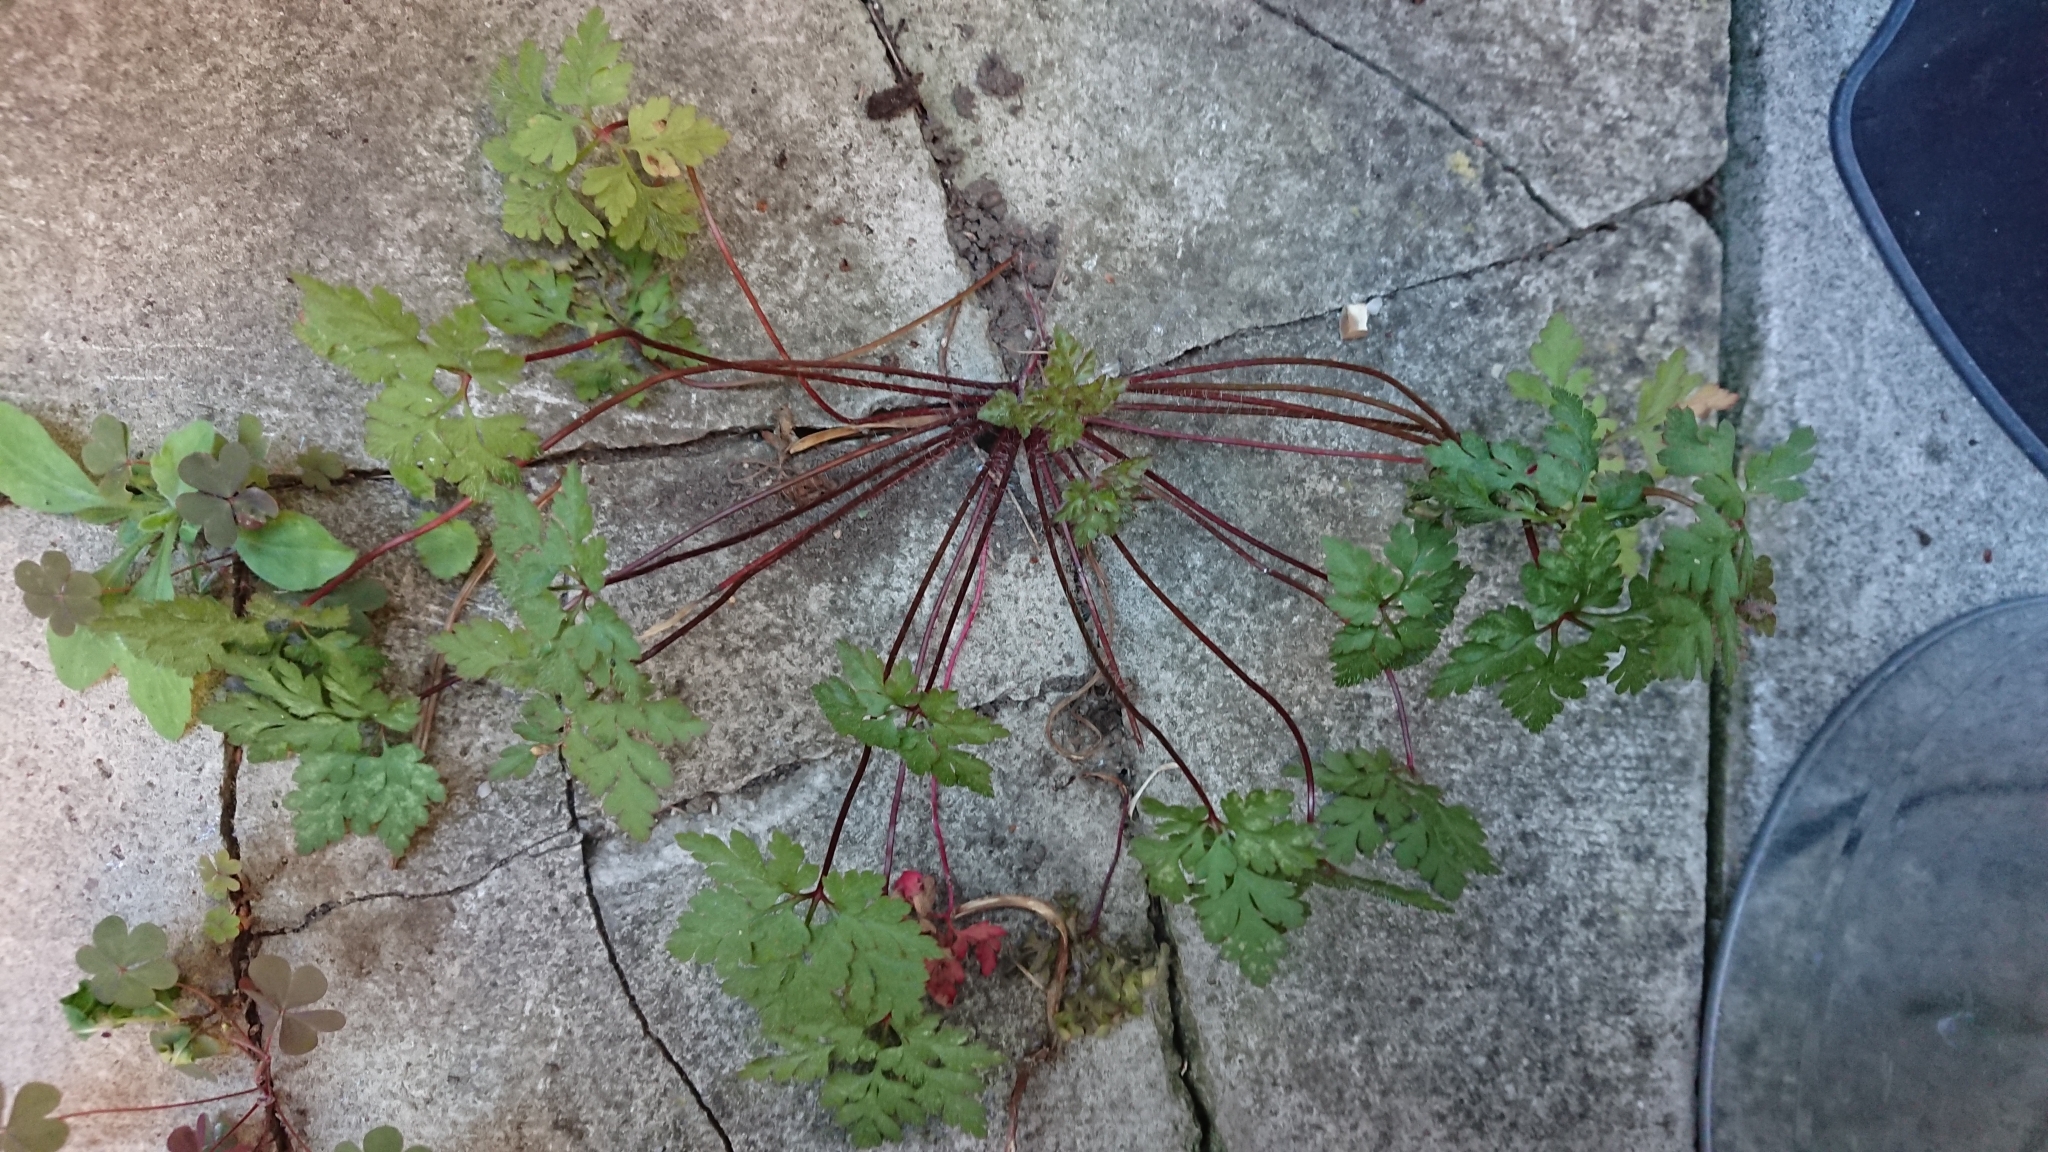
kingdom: Plantae
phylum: Tracheophyta
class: Magnoliopsida
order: Geraniales
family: Geraniaceae
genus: Geranium
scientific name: Geranium robertianum
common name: Herb-robert
